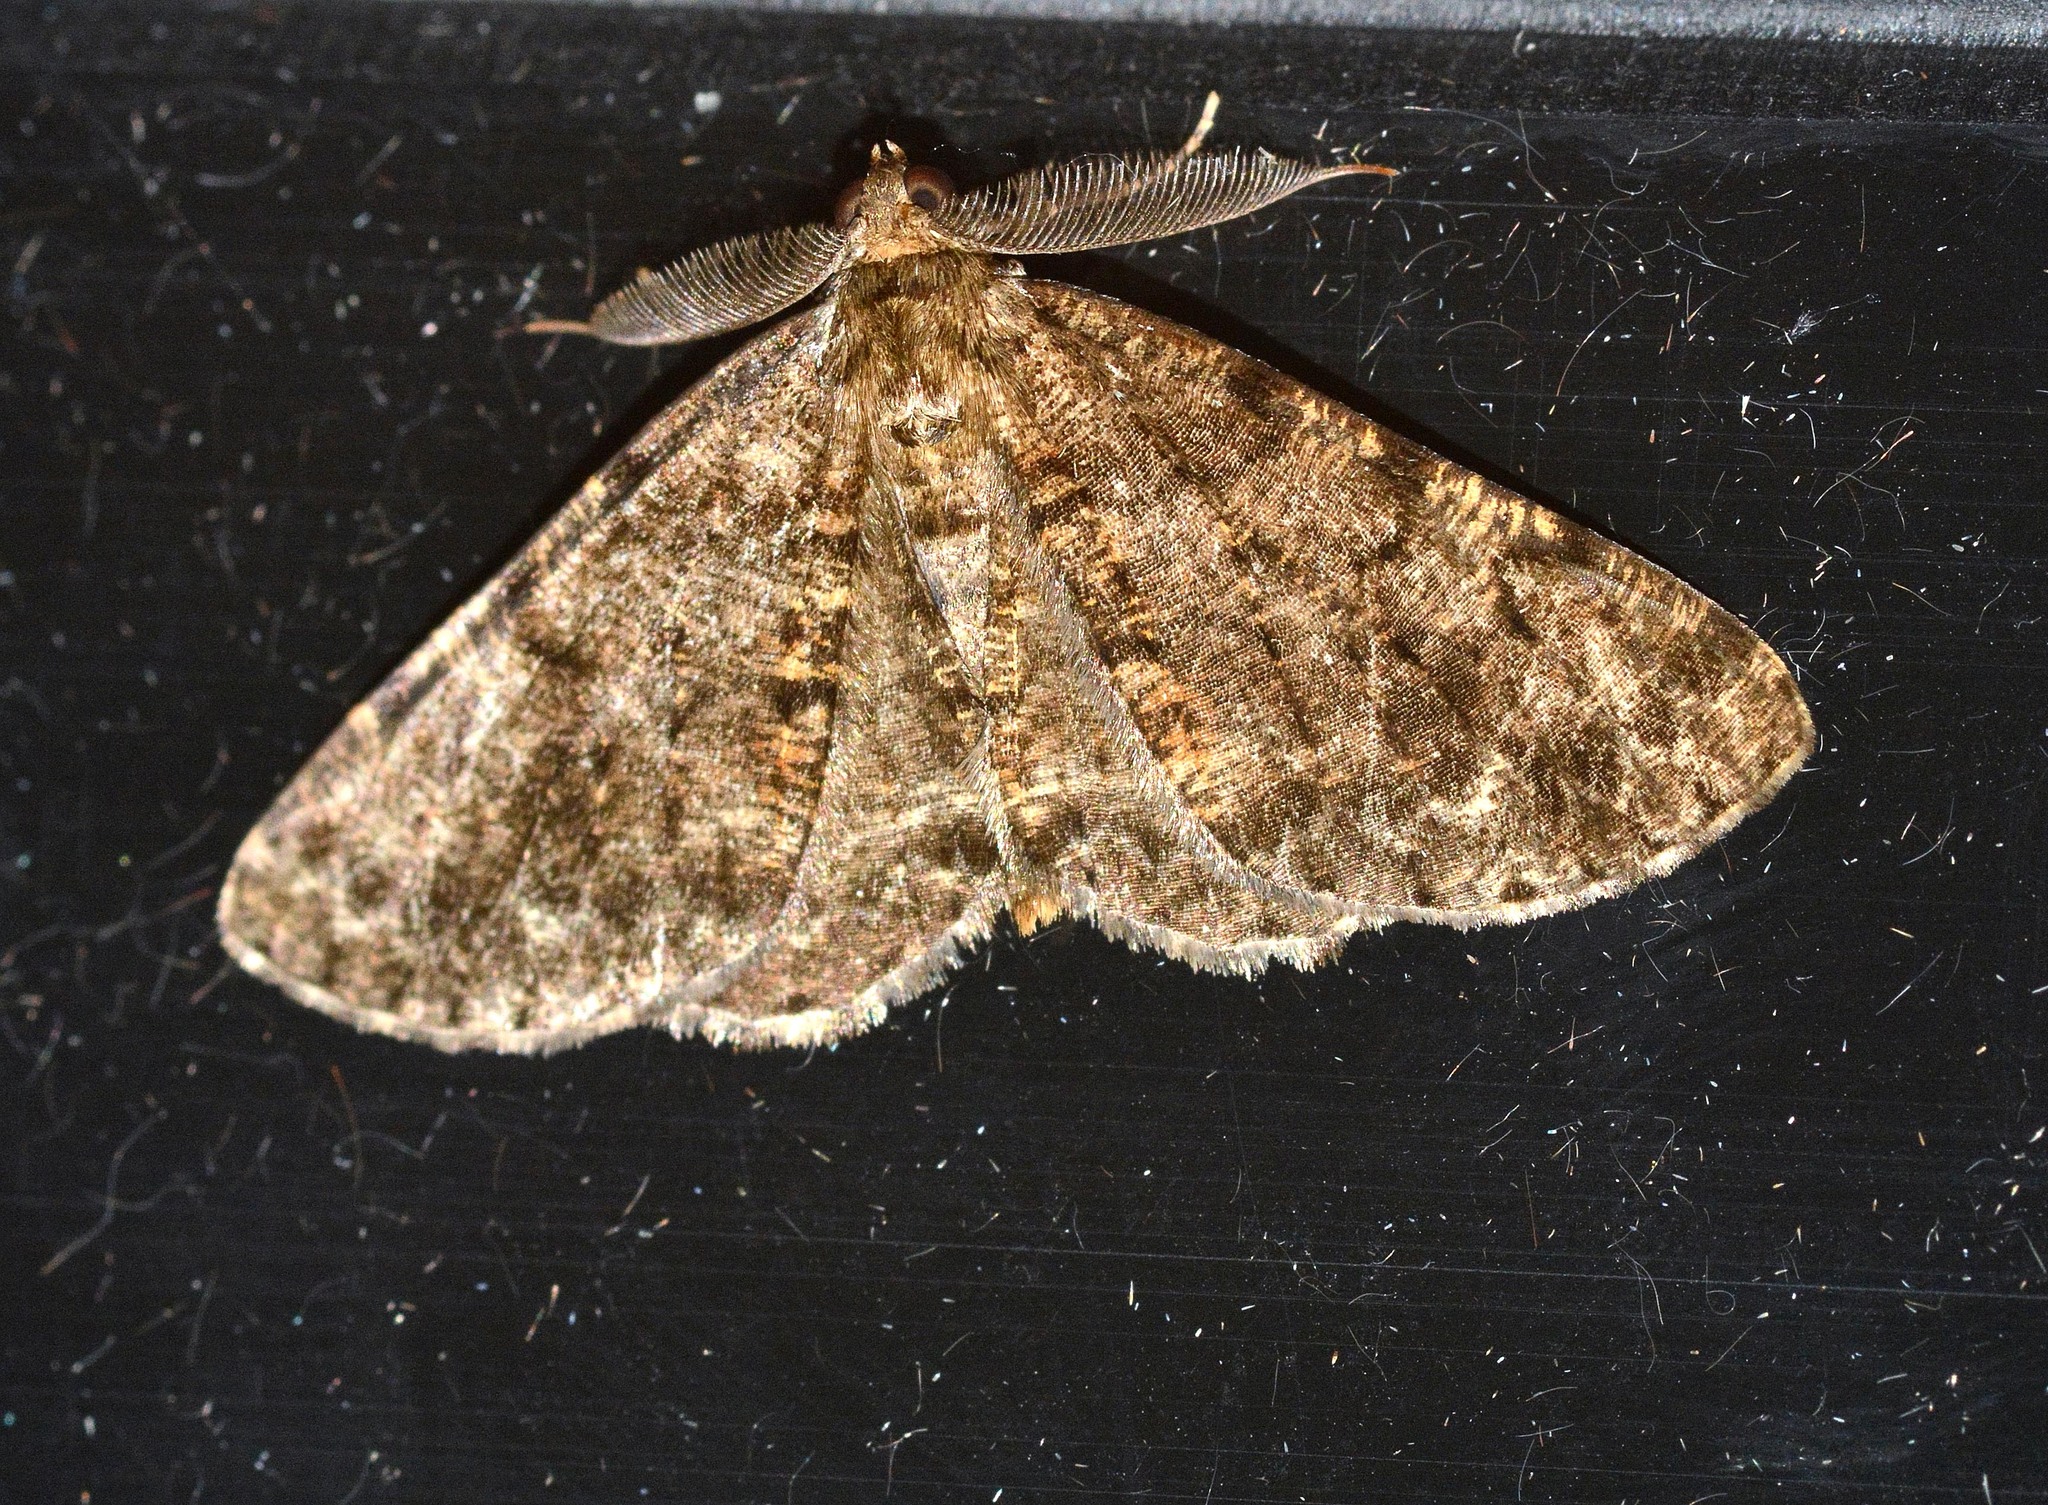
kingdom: Animalia
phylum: Arthropoda
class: Insecta
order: Lepidoptera
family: Geometridae
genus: Deileptenia
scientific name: Deileptenia ribeata
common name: Satin beauty
